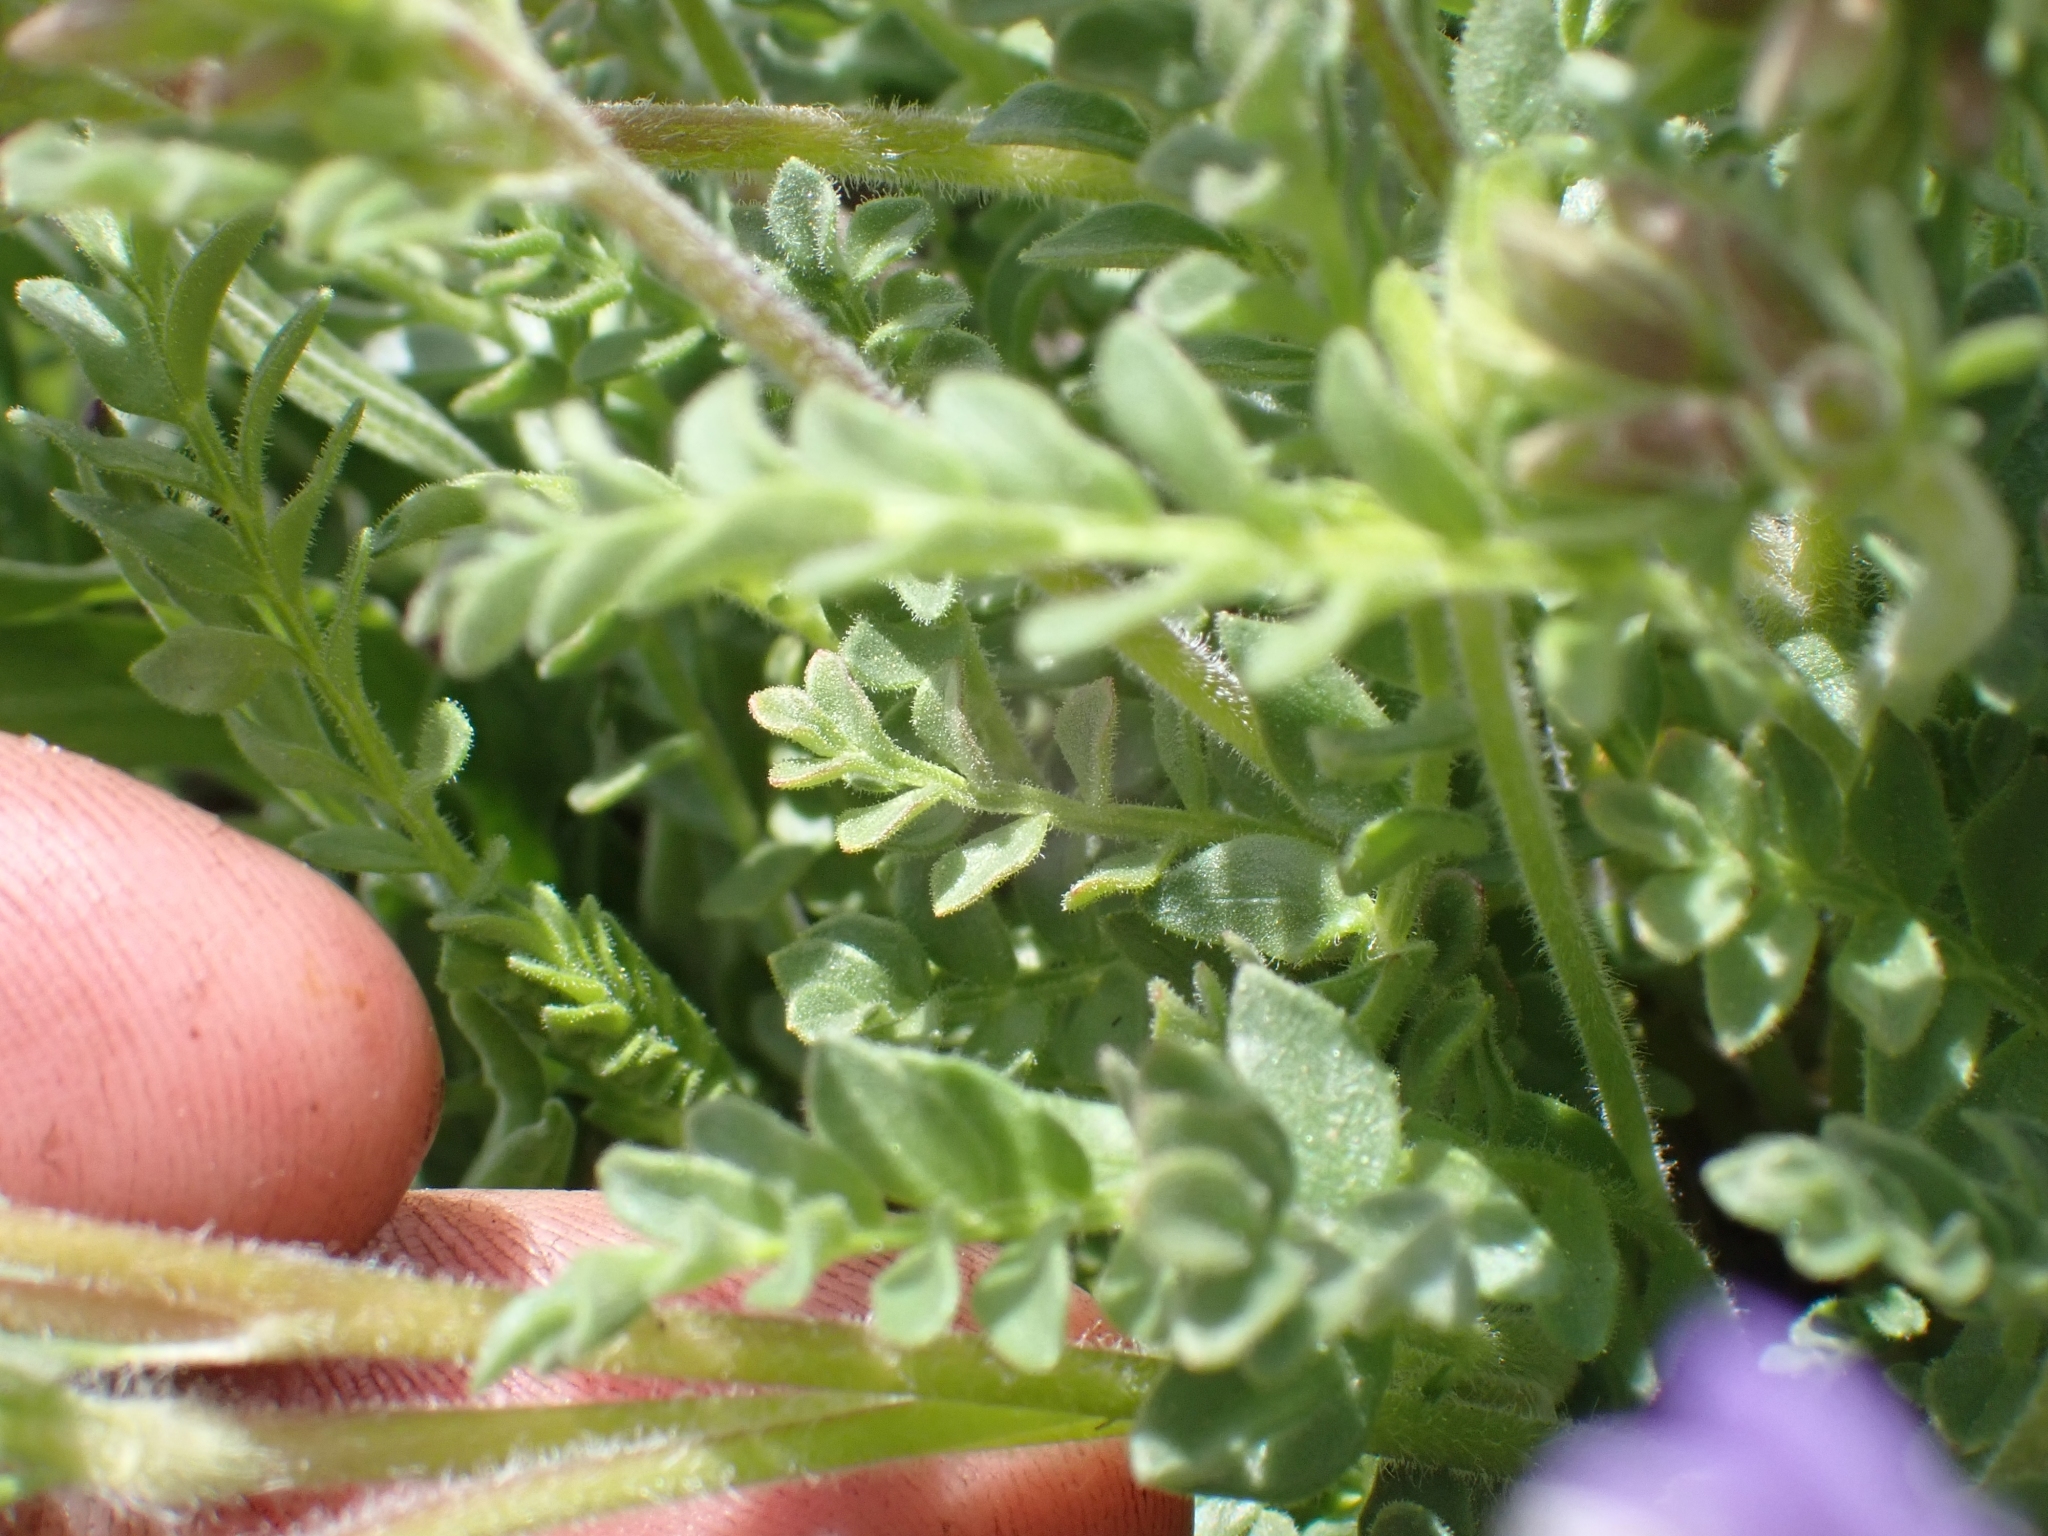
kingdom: Plantae
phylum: Tracheophyta
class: Magnoliopsida
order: Ericales
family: Polemoniaceae
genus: Polemonium
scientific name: Polemonium pulcherrimum
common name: Short jacob's-ladder
